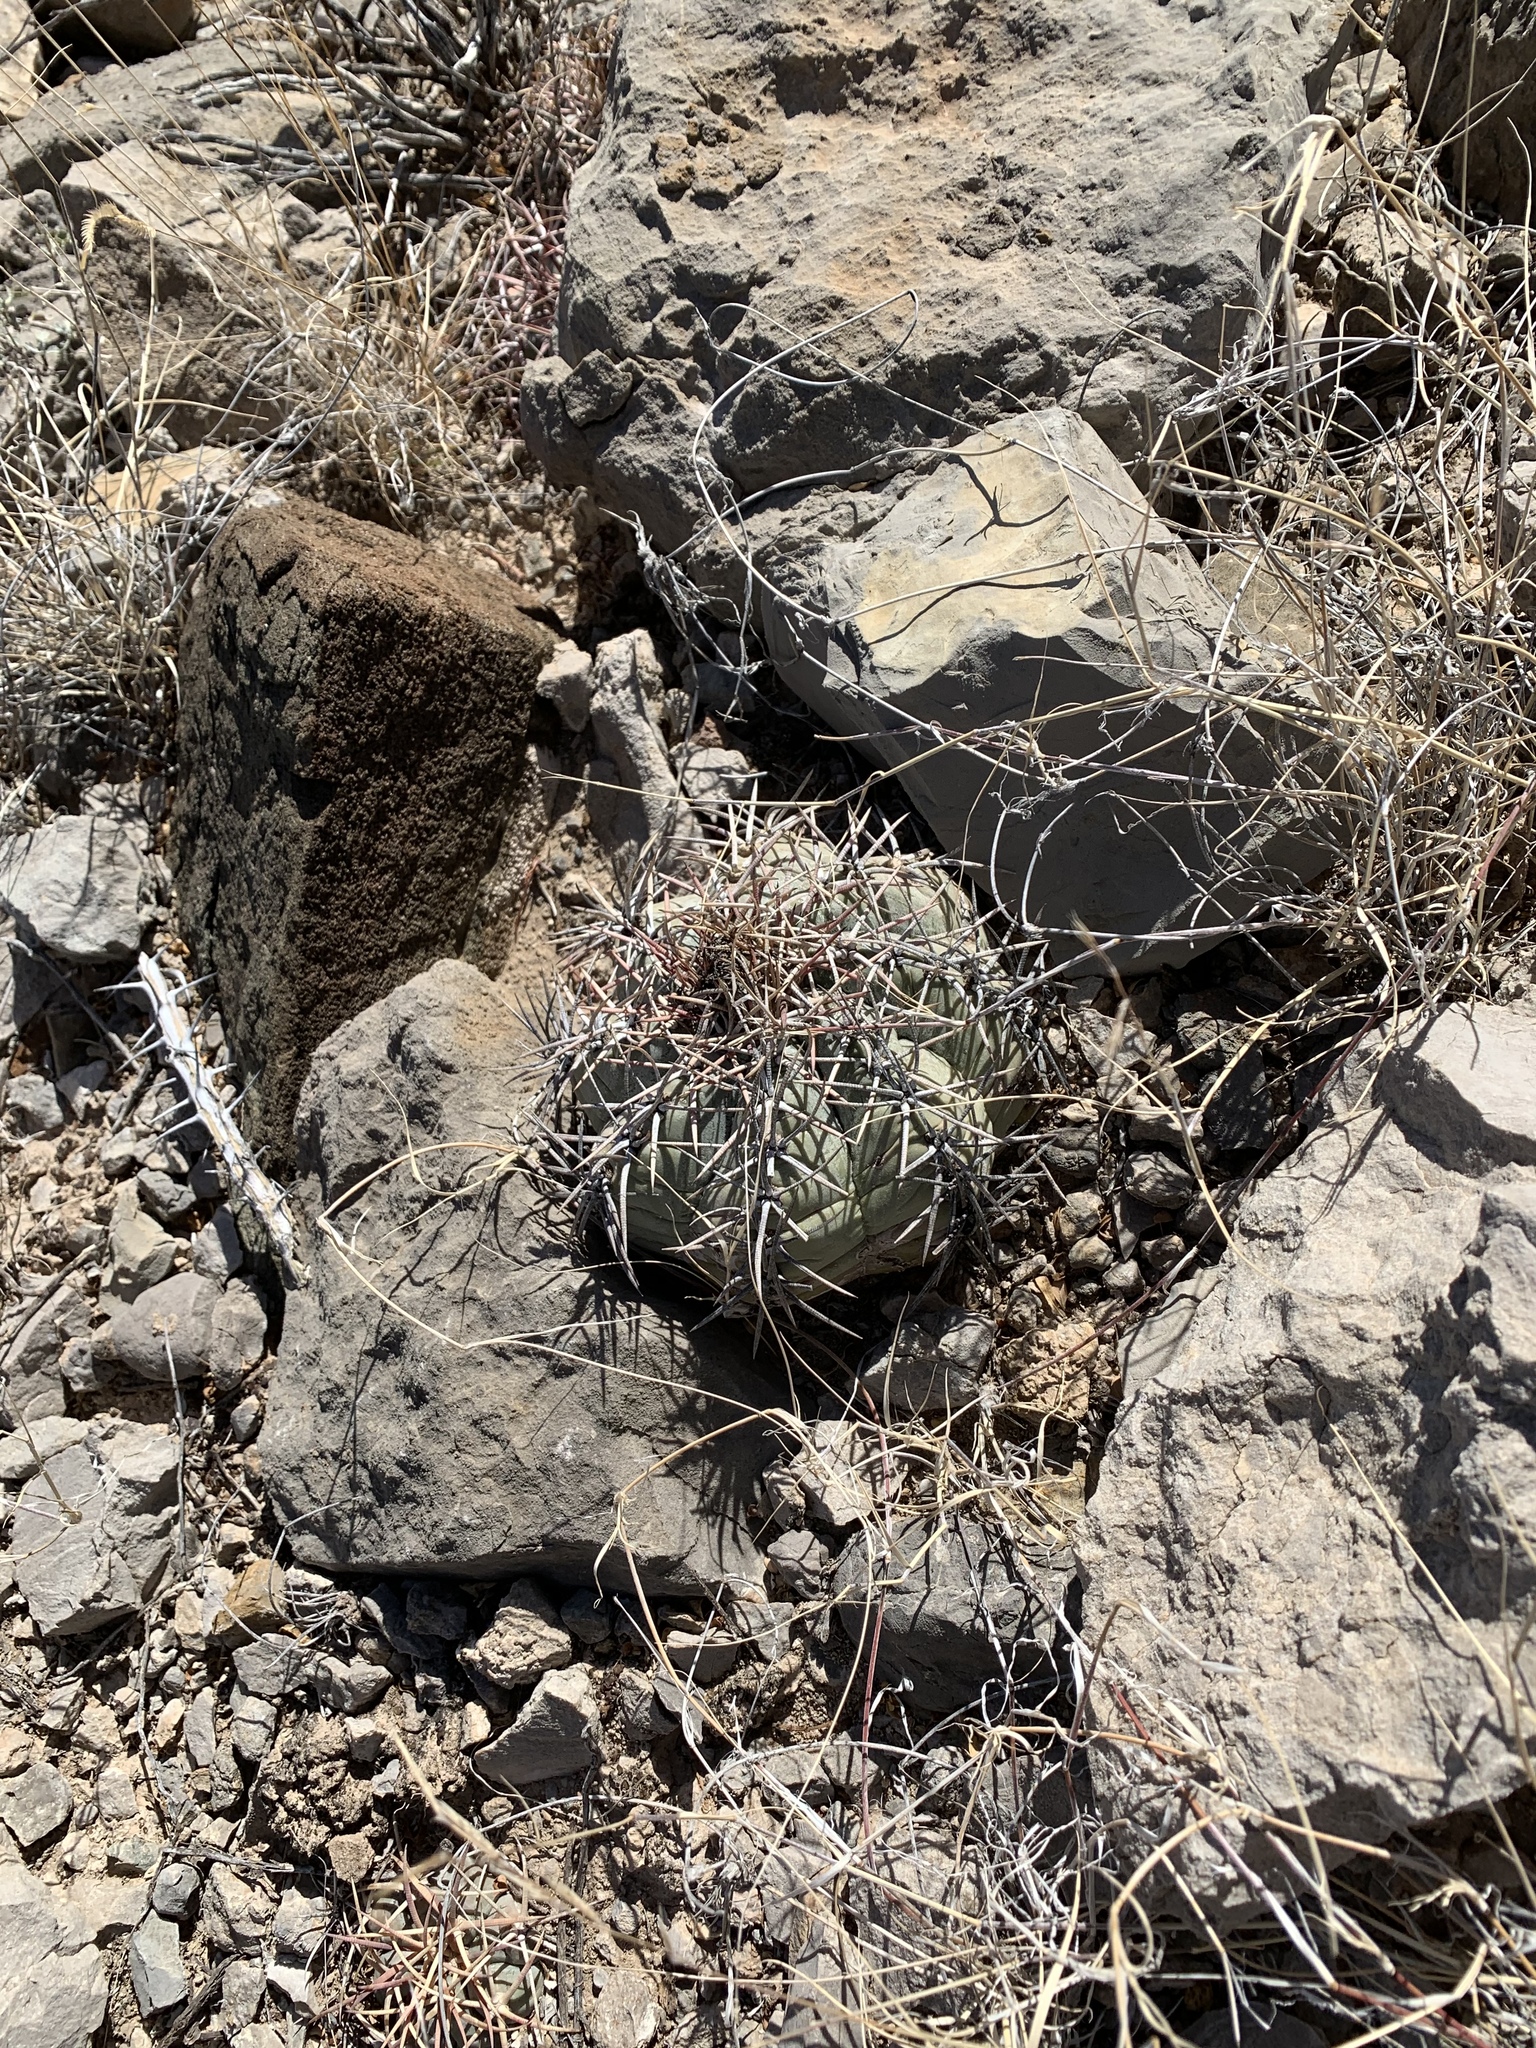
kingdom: Plantae
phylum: Tracheophyta
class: Magnoliopsida
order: Caryophyllales
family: Cactaceae
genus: Echinocactus
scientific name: Echinocactus horizonthalonius
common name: Devilshead
